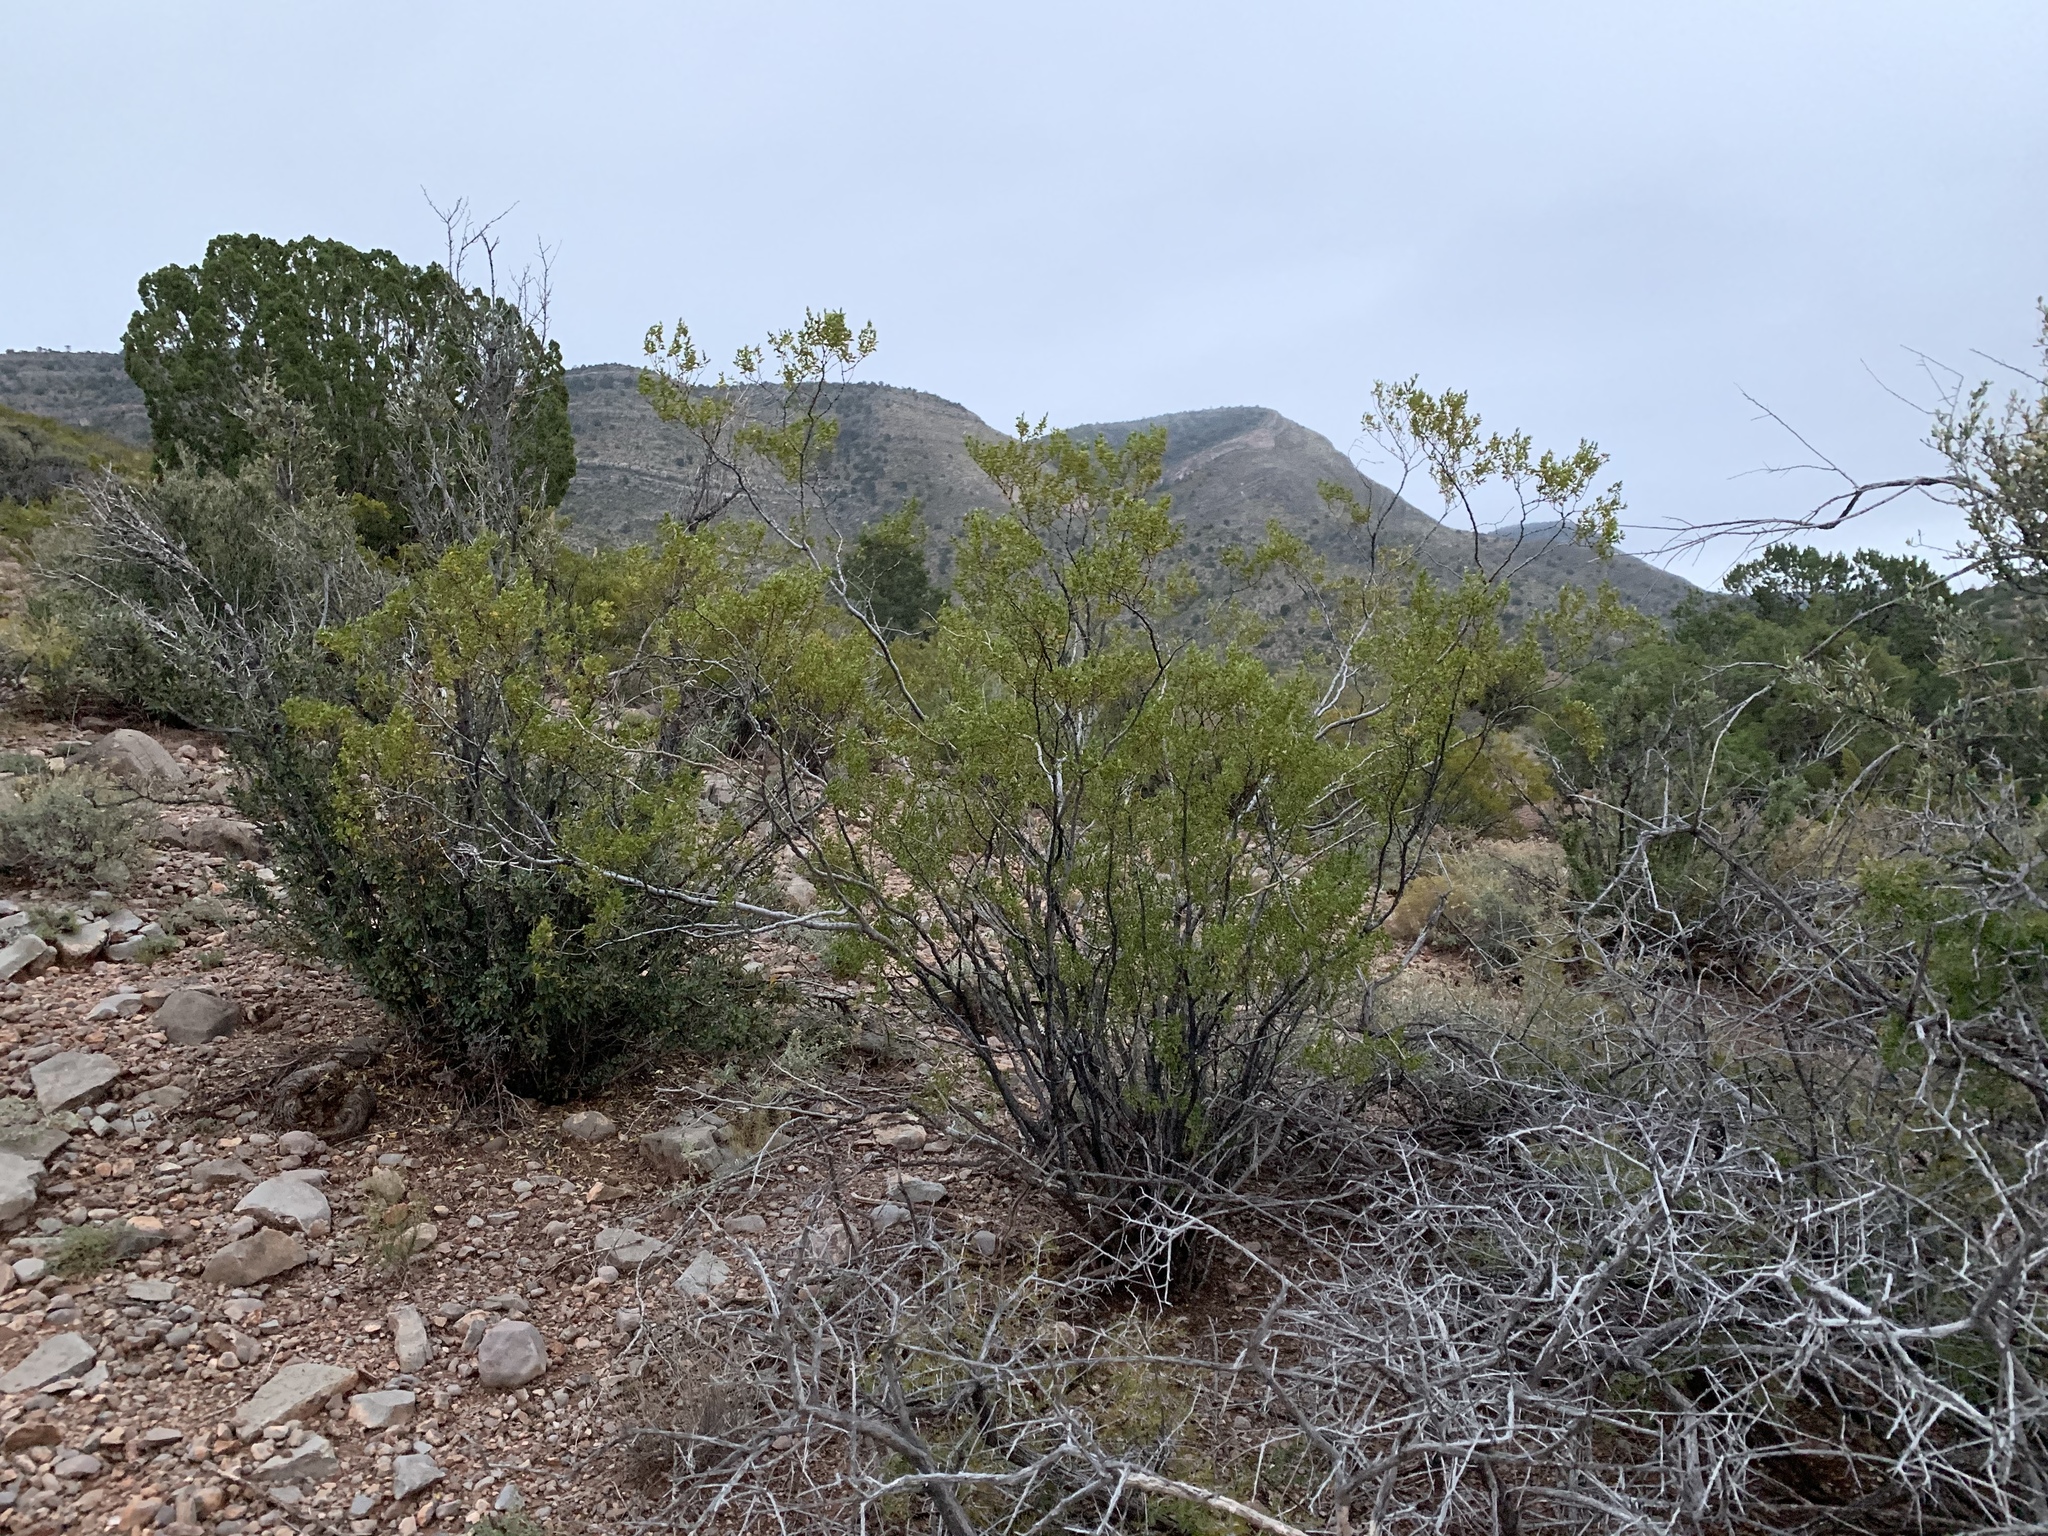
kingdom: Plantae
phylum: Tracheophyta
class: Magnoliopsida
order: Zygophyllales
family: Zygophyllaceae
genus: Larrea
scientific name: Larrea tridentata
